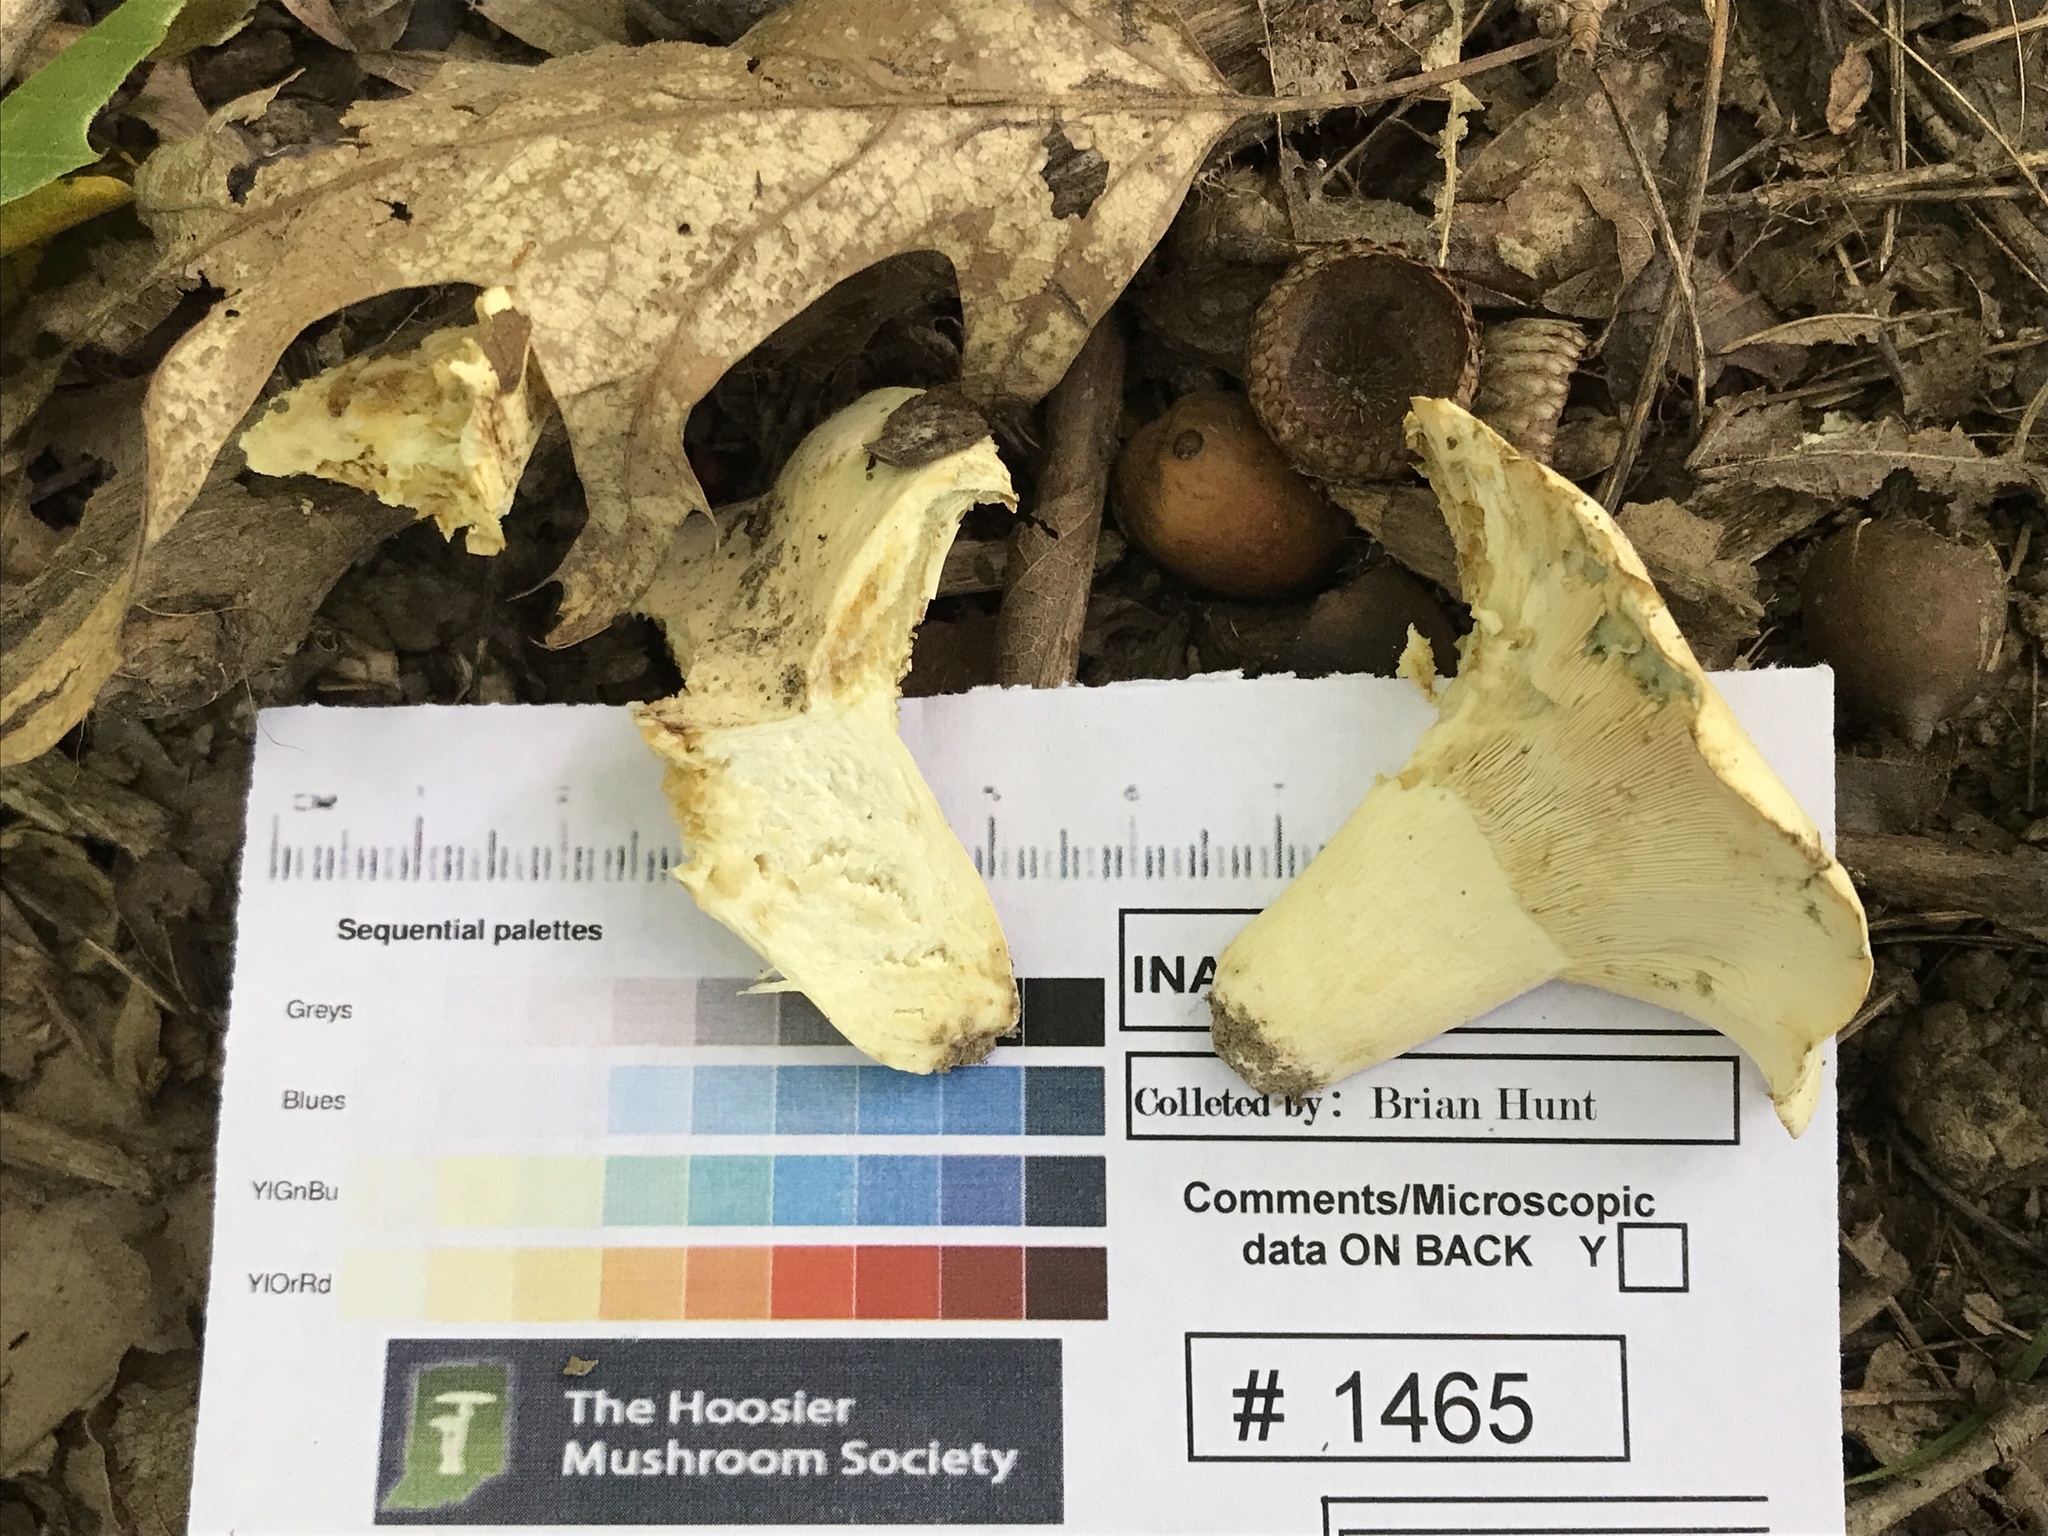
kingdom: Fungi
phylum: Basidiomycota
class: Agaricomycetes
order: Russulales
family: Russulaceae
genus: Lactifluus
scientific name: Lactifluus glaucescens
